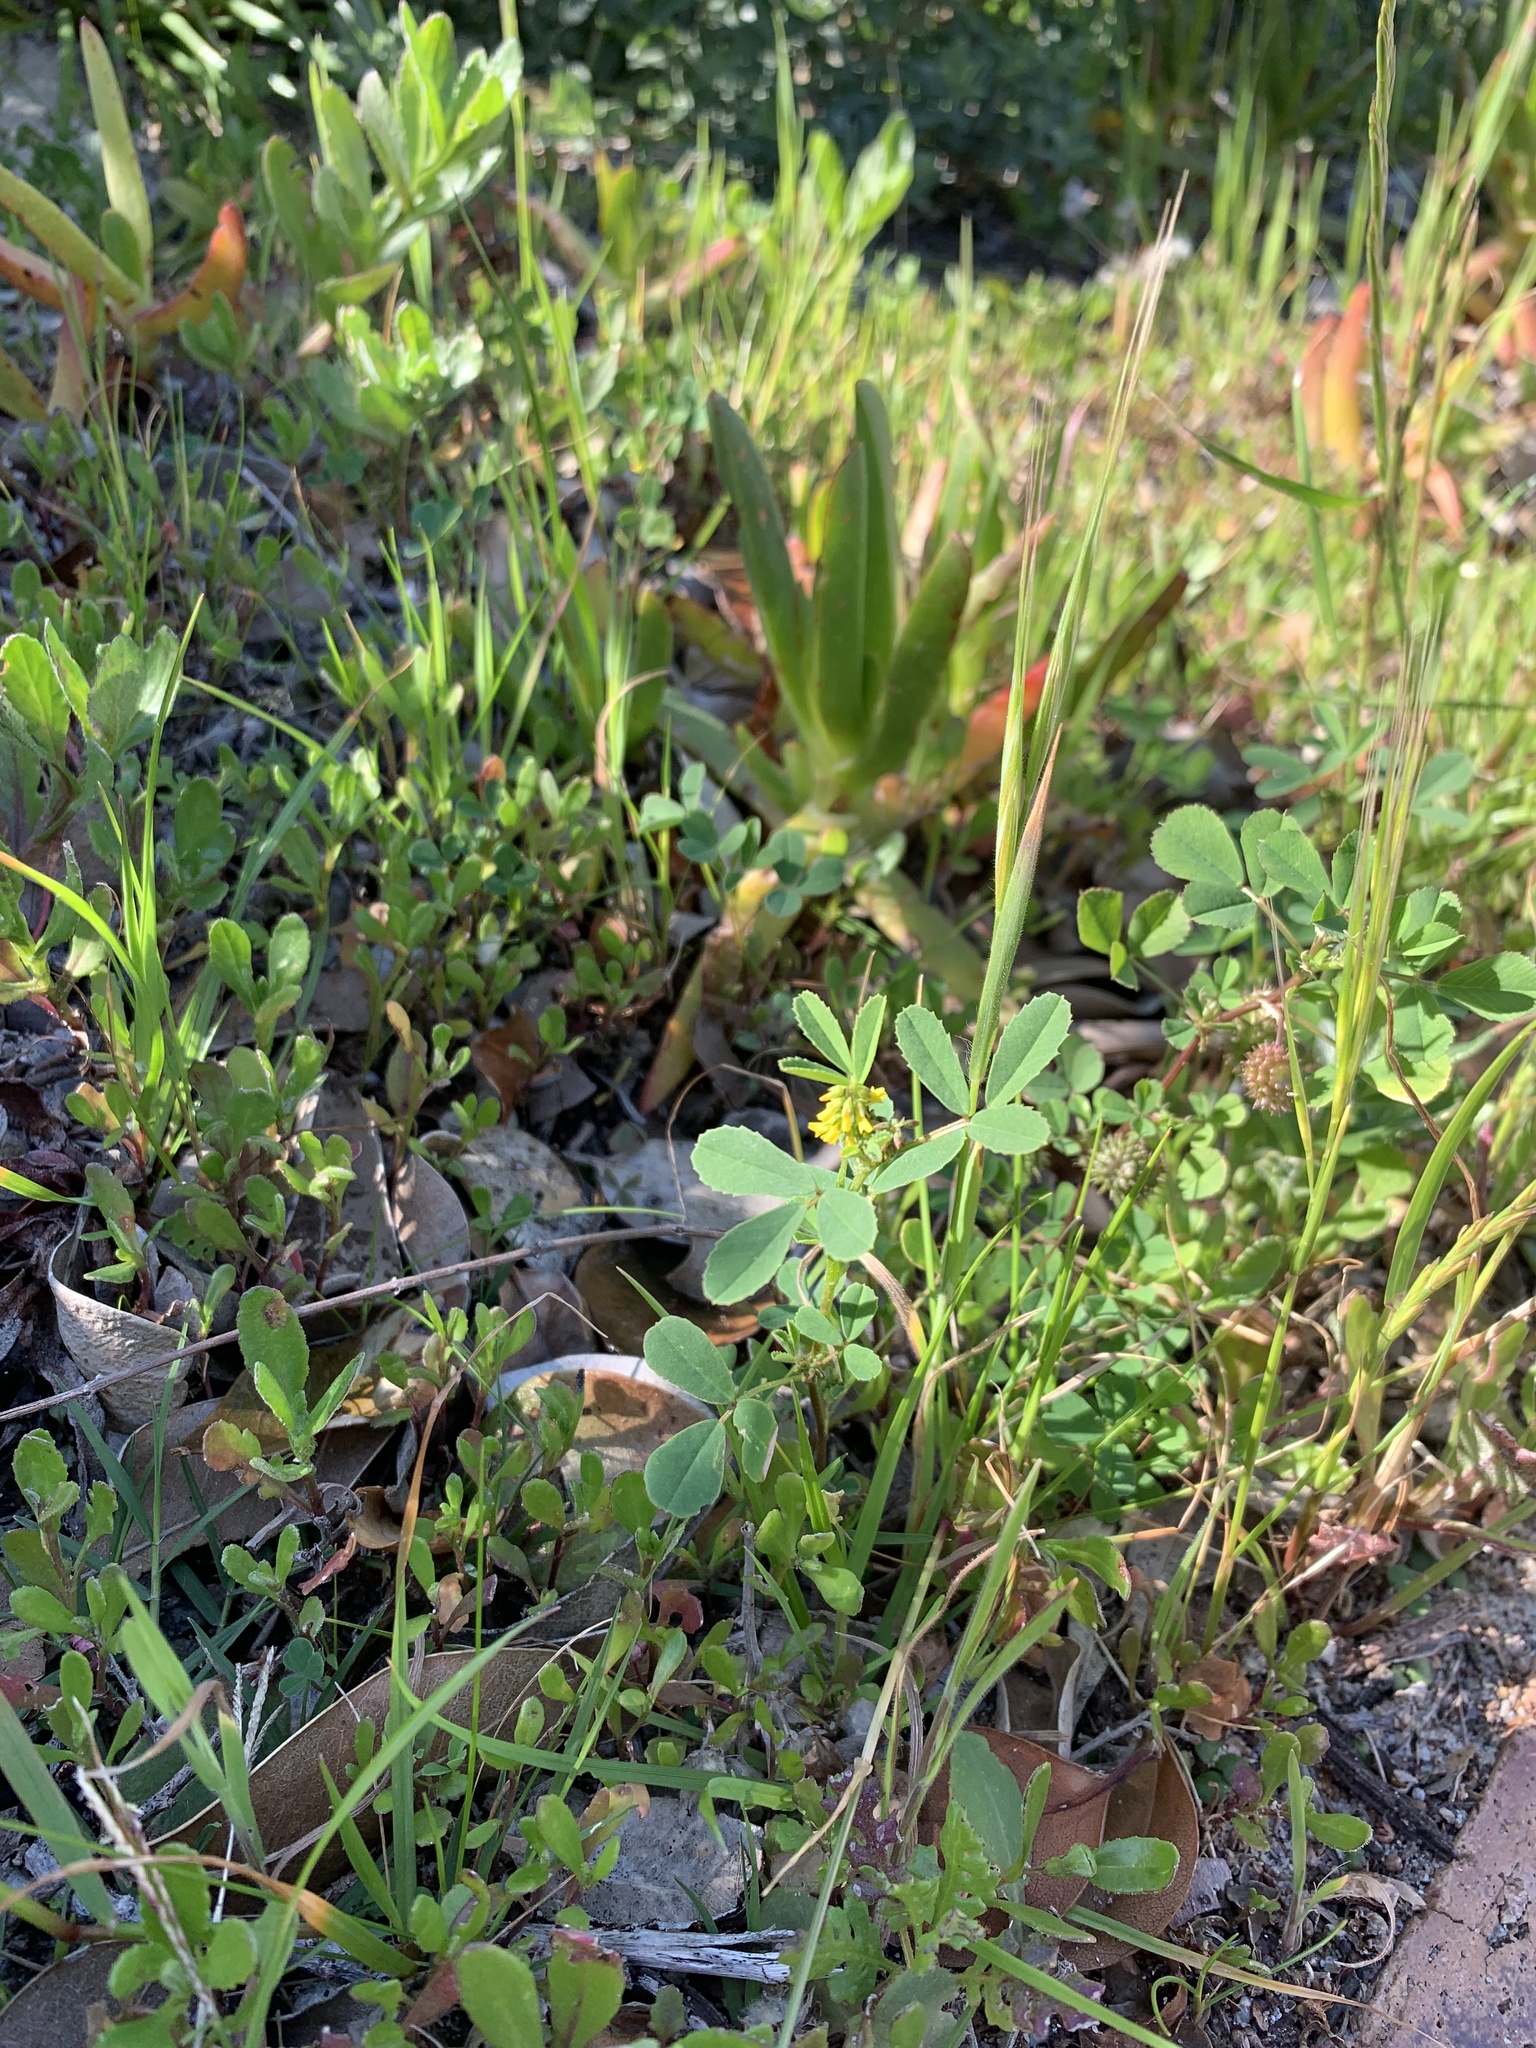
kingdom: Plantae
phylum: Tracheophyta
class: Magnoliopsida
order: Fabales
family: Fabaceae
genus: Melilotus
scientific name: Melilotus indicus
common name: Small melilot
